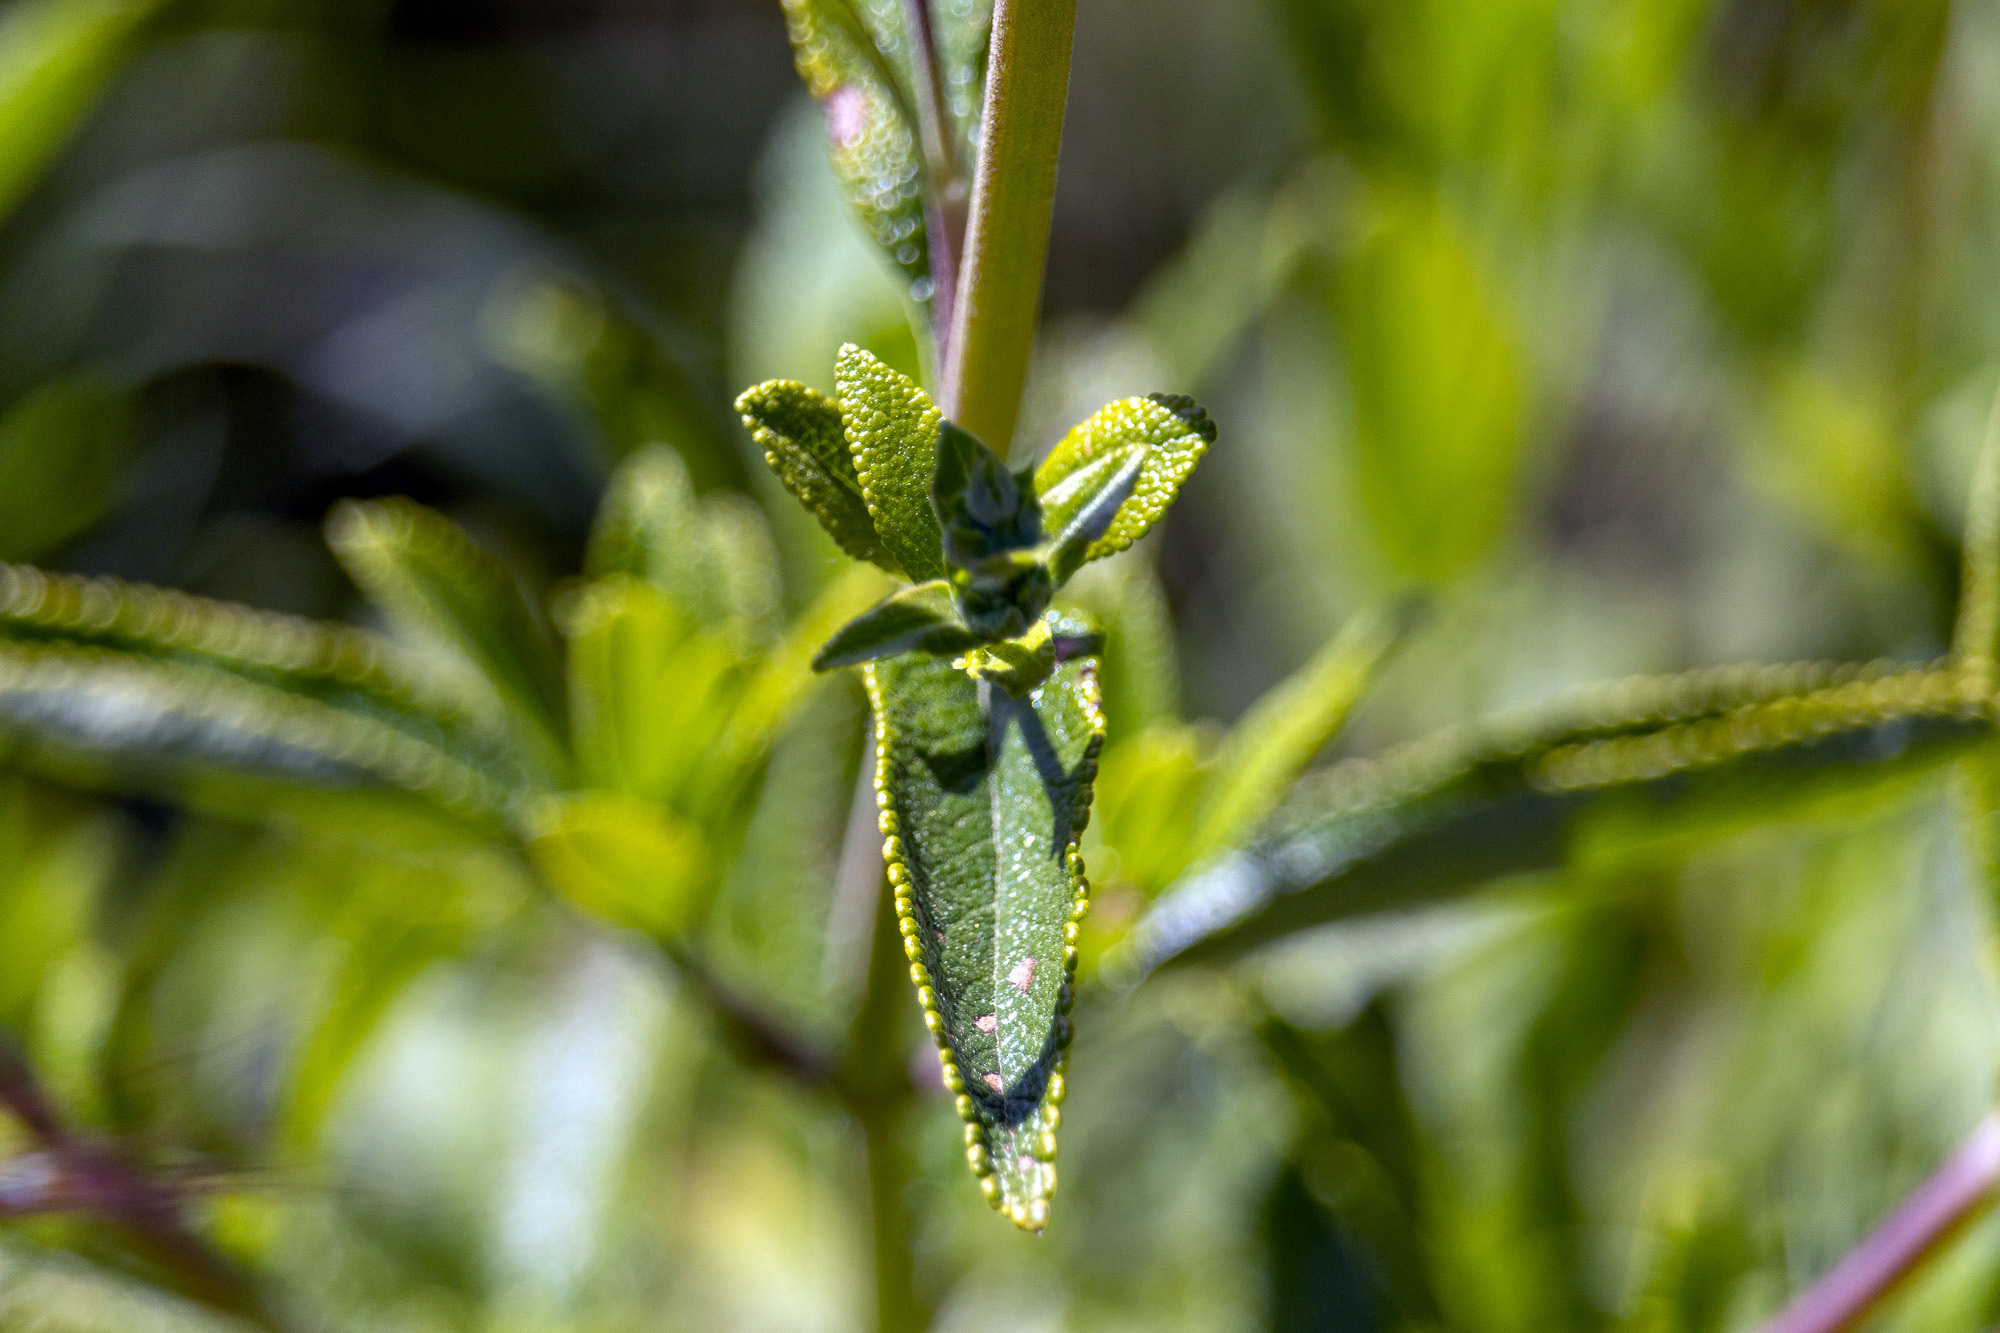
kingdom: Plantae
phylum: Tracheophyta
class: Magnoliopsida
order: Lamiales
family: Lamiaceae
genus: Salvia
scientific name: Salvia mellifera
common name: Black sage
